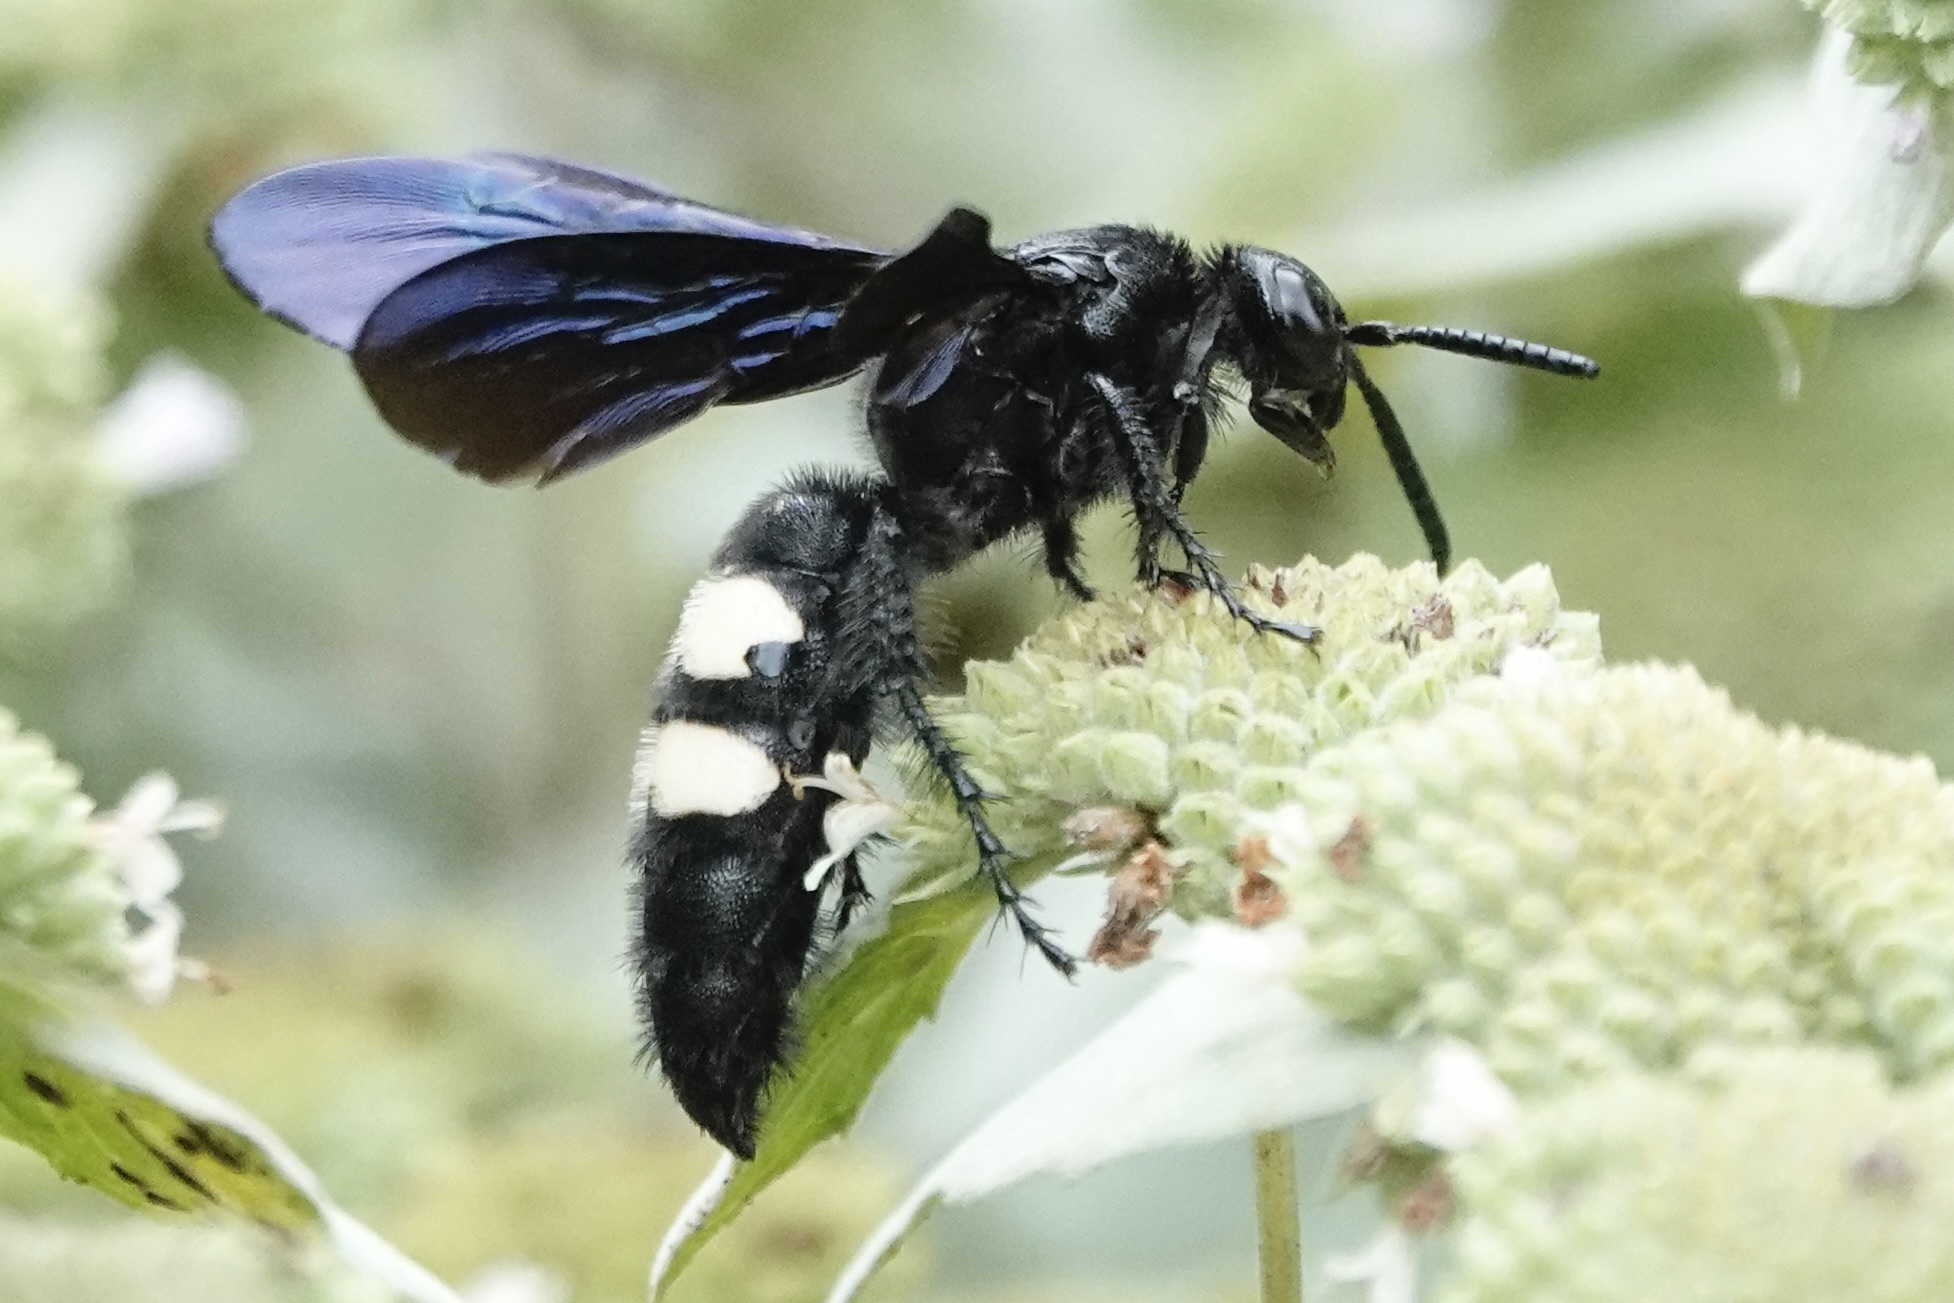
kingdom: Animalia
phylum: Arthropoda
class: Insecta
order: Hymenoptera
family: Scoliidae
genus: Scolia
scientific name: Scolia bicincta
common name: Double-banded scoliid wasp
